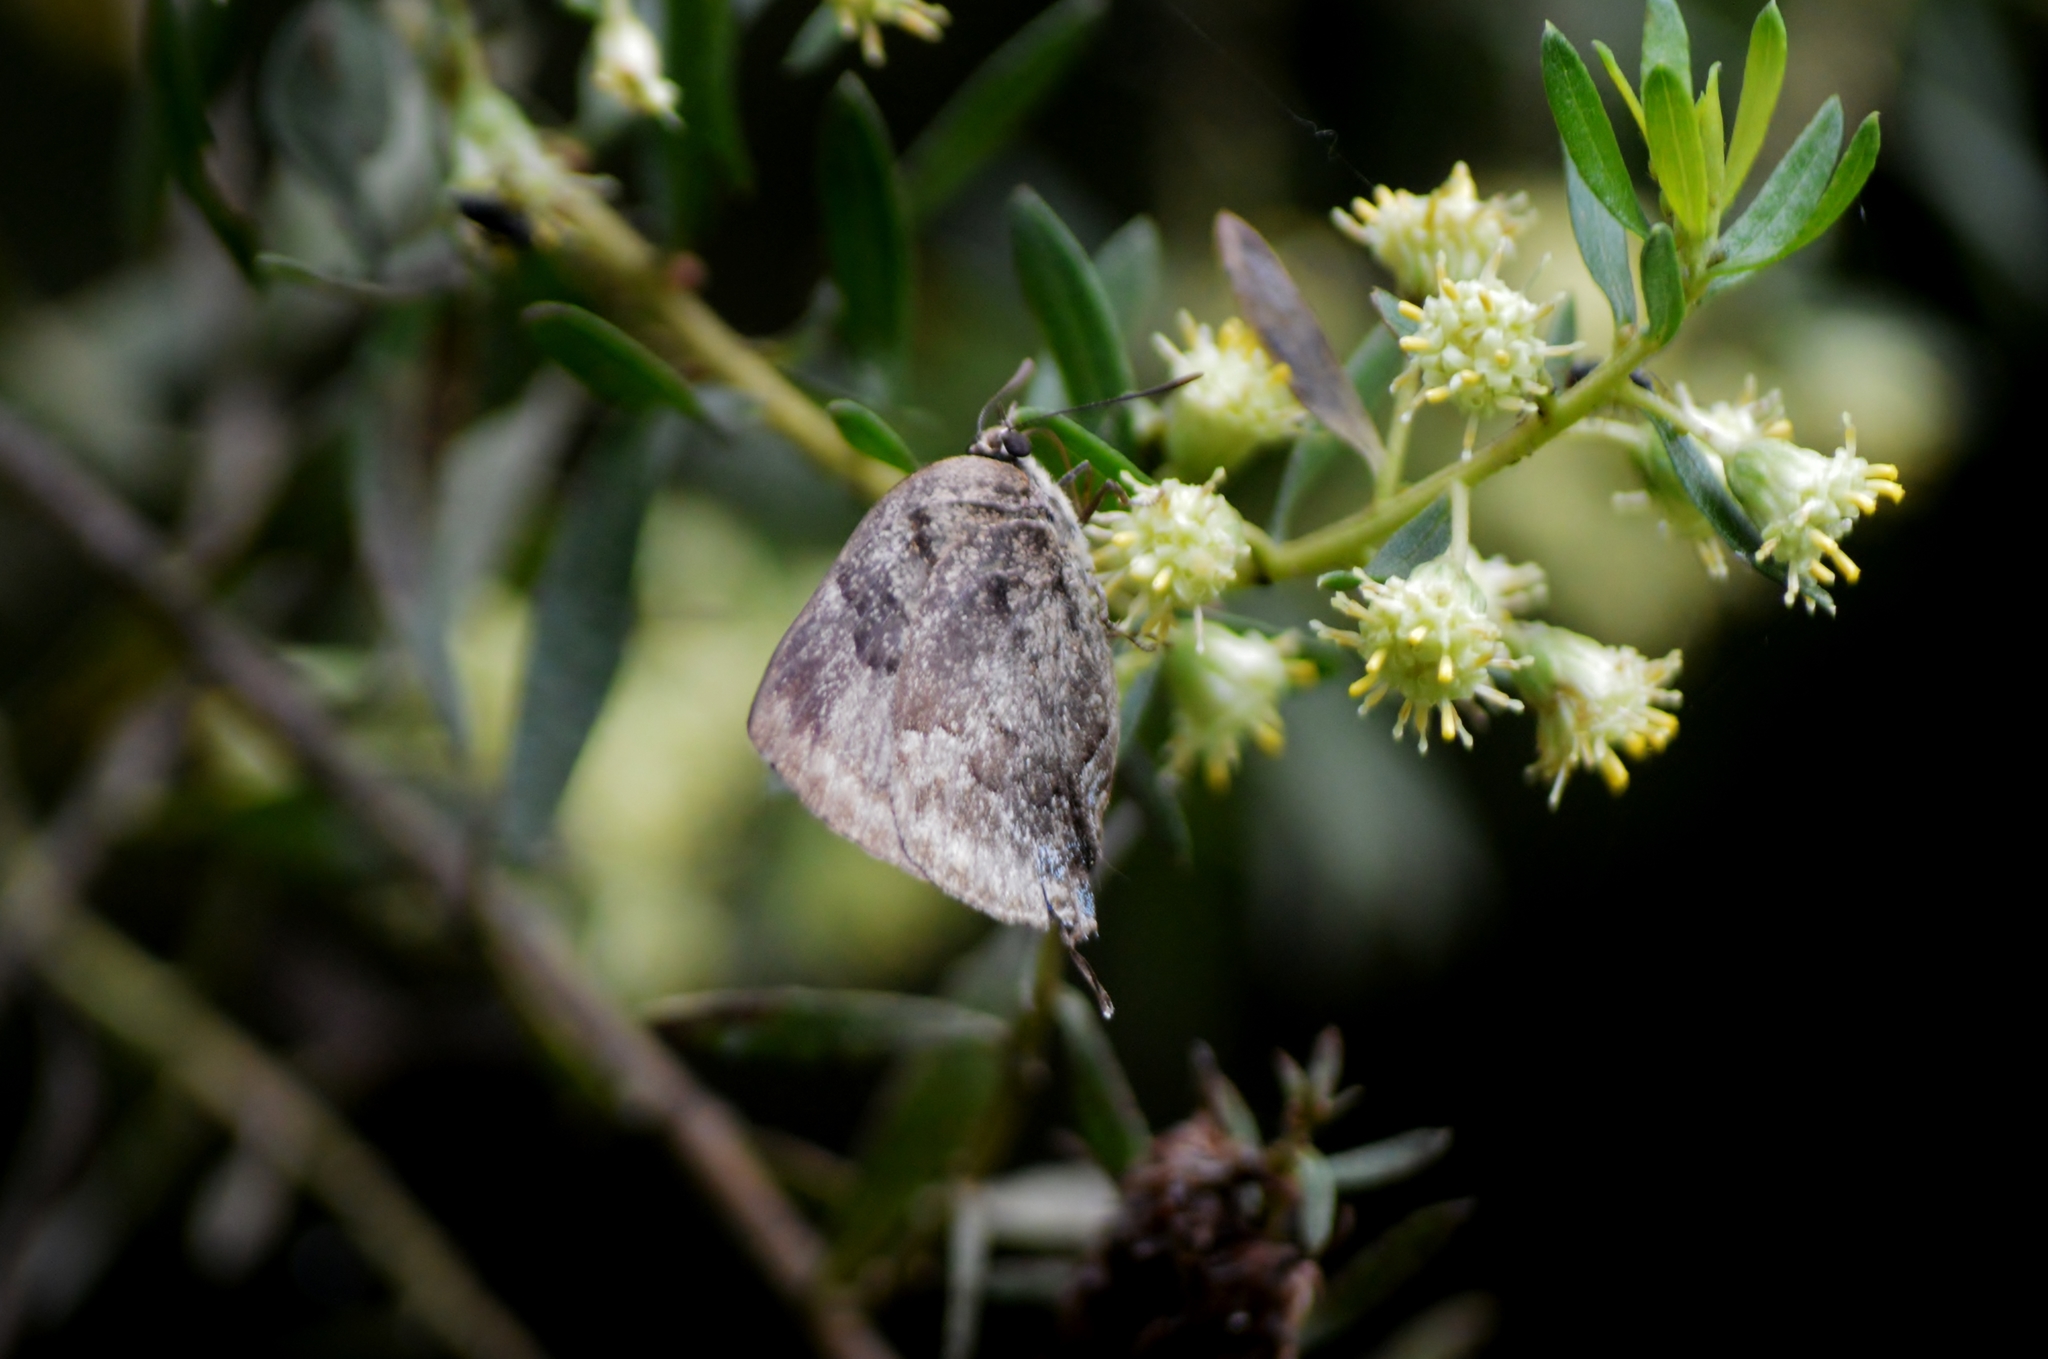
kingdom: Animalia
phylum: Arthropoda
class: Insecta
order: Lepidoptera
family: Lycaenidae
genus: Panthiades
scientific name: Panthiades hebraeus
